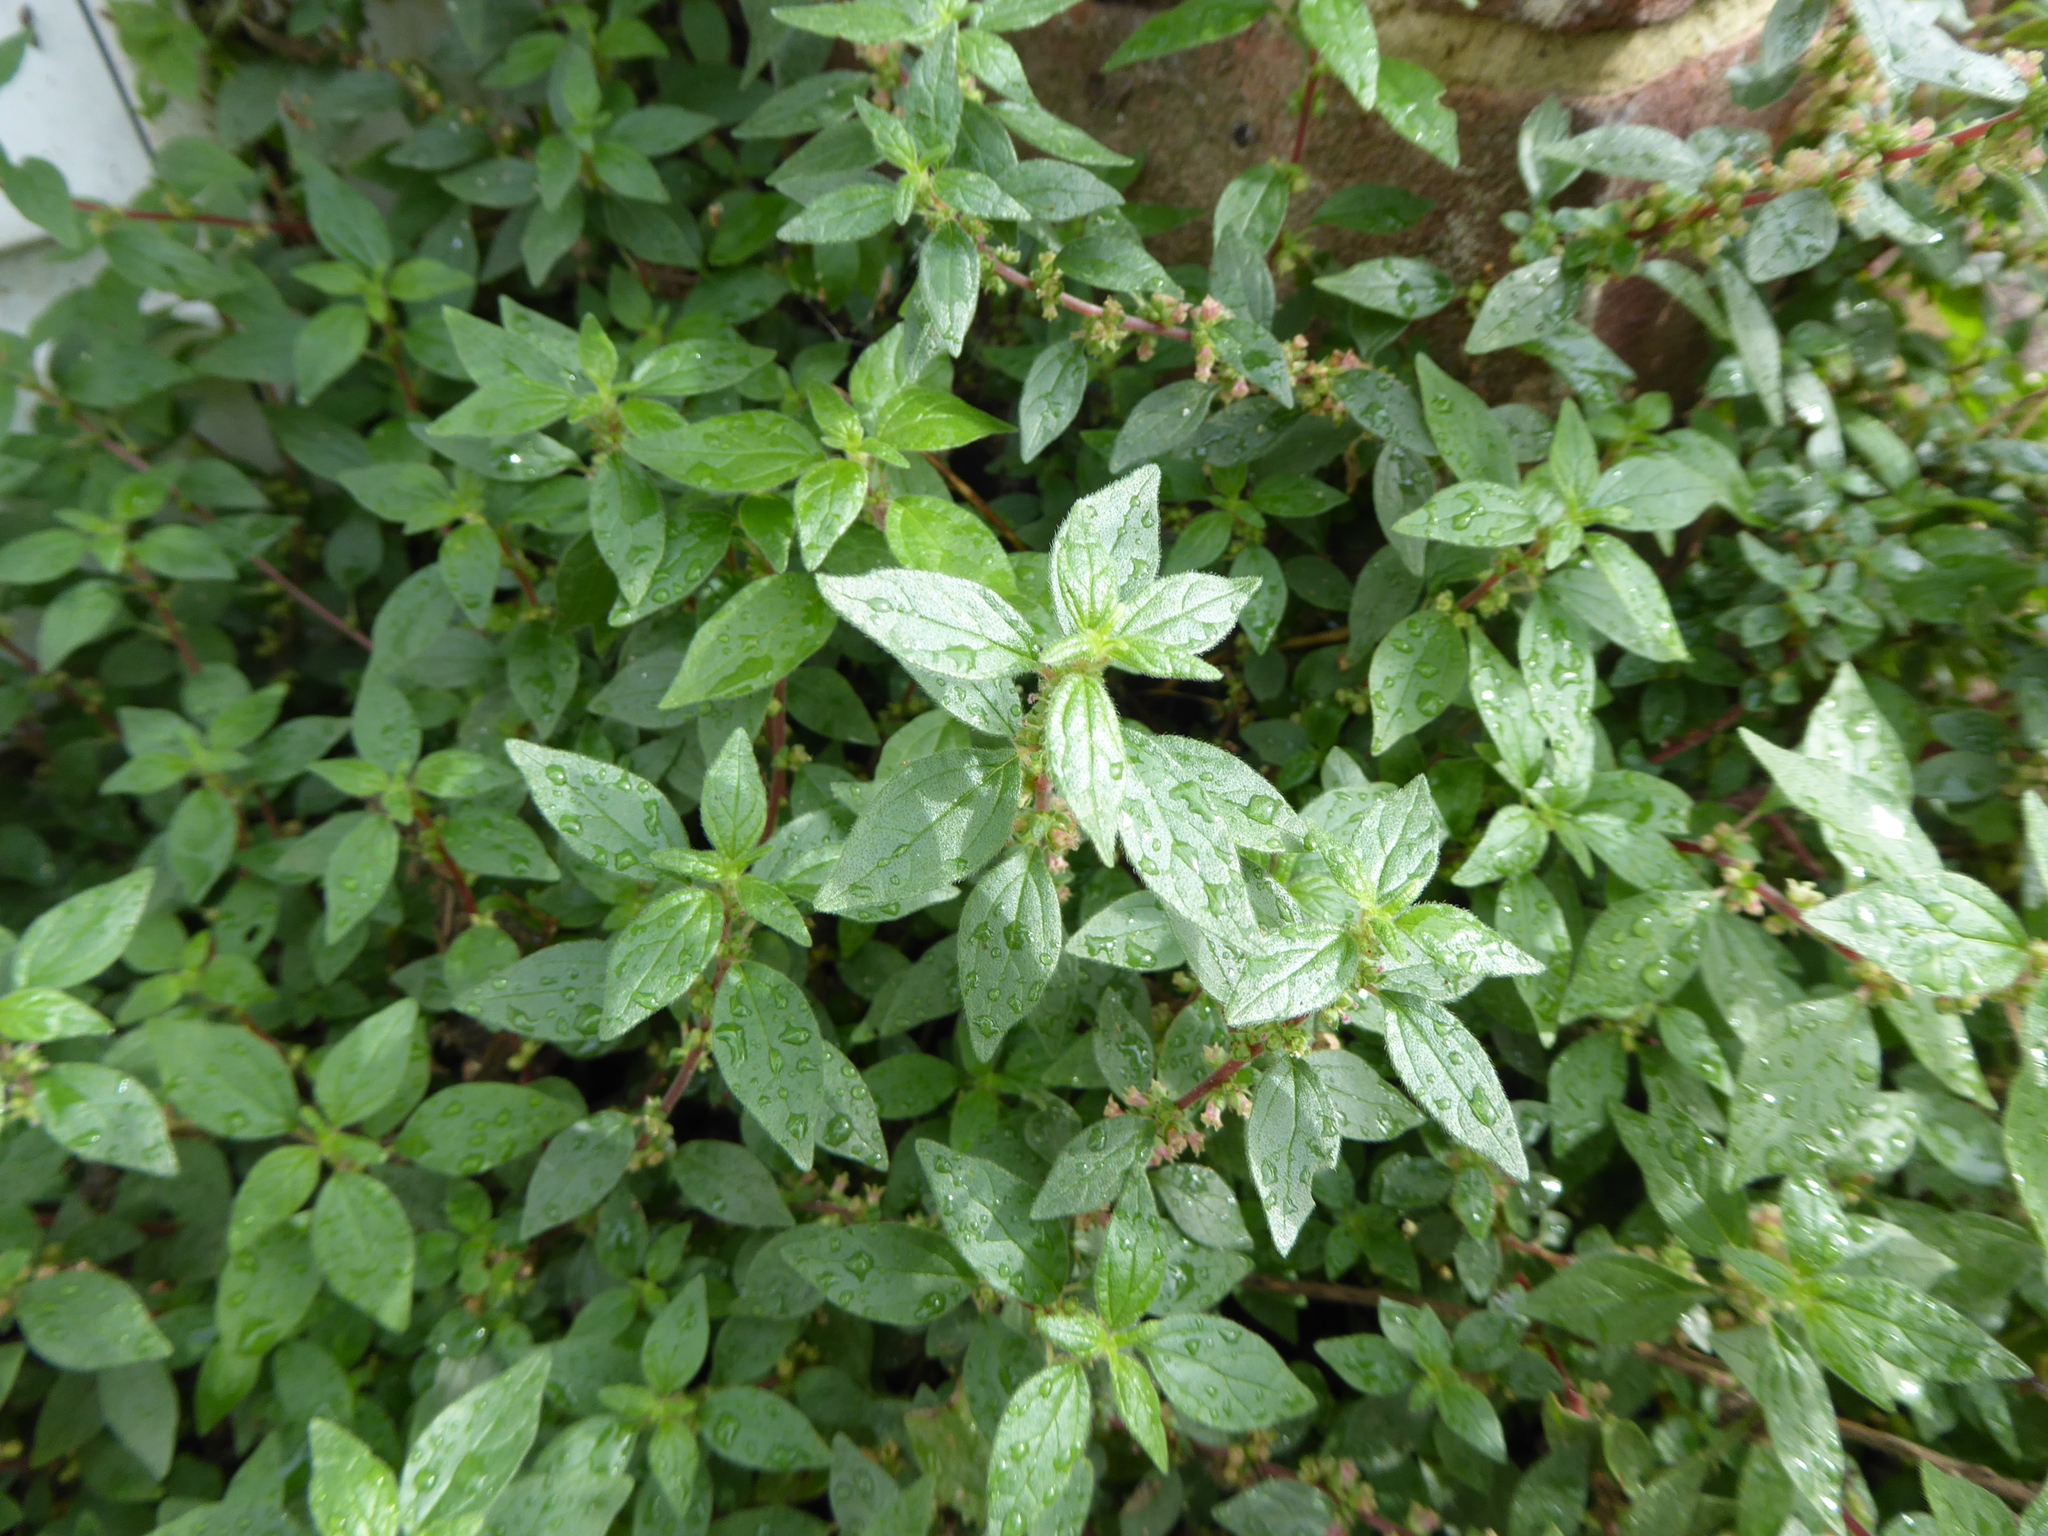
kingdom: Plantae
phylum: Tracheophyta
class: Magnoliopsida
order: Rosales
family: Urticaceae
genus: Parietaria
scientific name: Parietaria judaica
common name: Pellitory-of-the-wall
